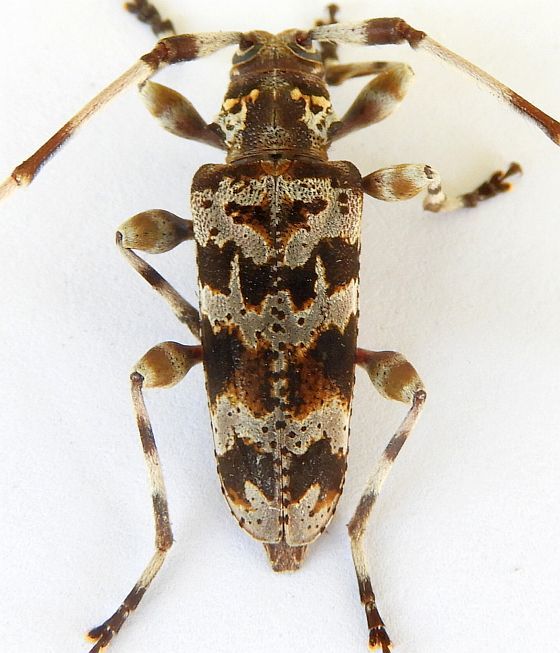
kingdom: Animalia
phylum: Arthropoda
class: Insecta
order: Coleoptera
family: Cerambycidae
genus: Acanthocinus
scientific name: Acanthocinus spectabilis
